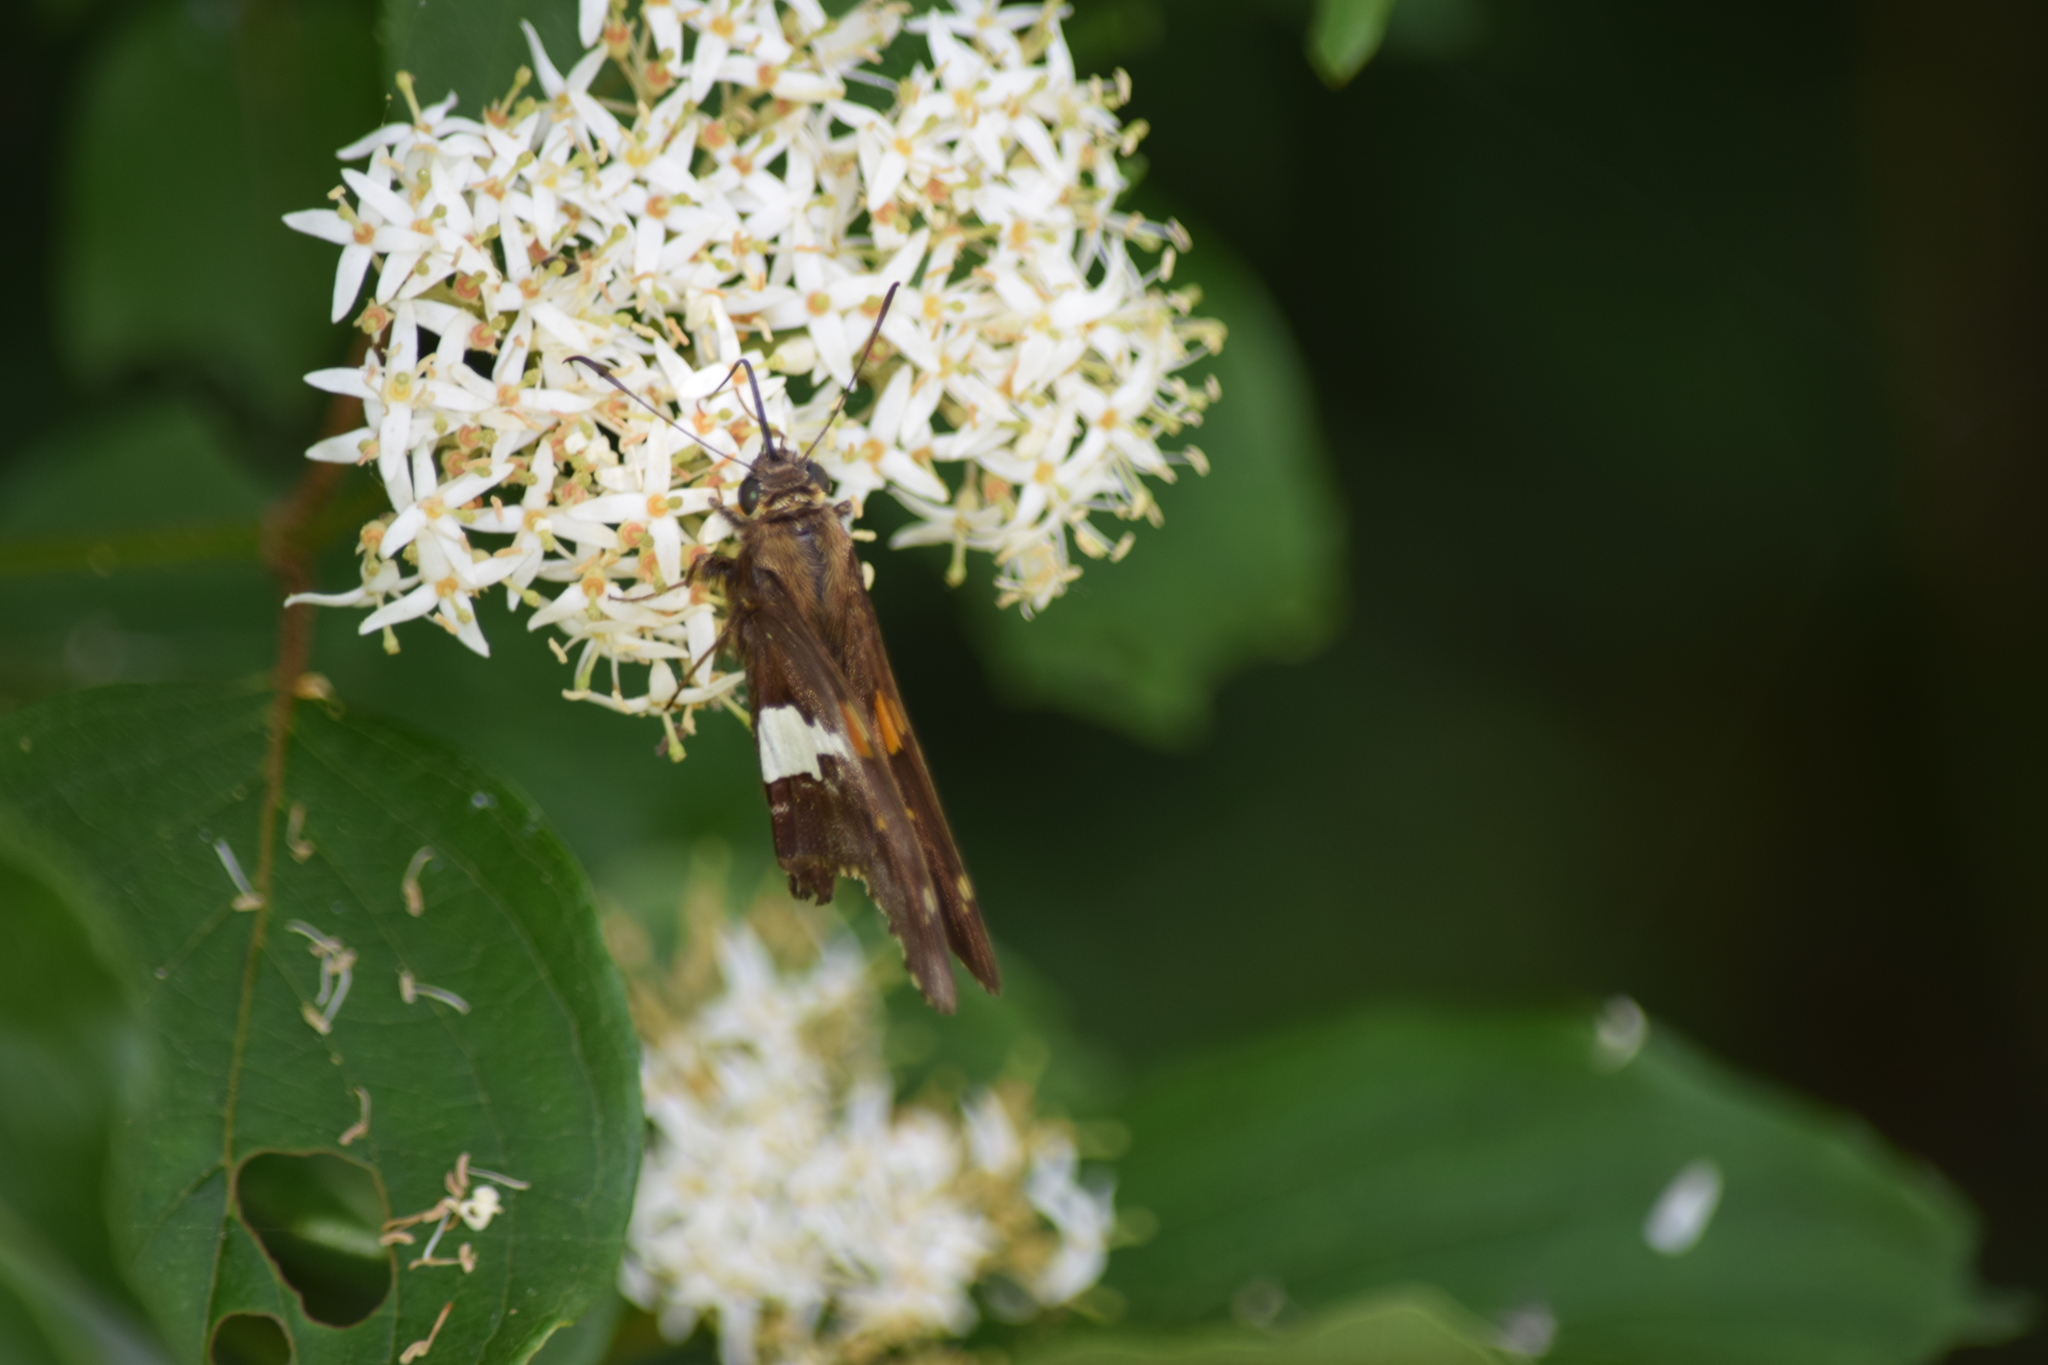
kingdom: Animalia
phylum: Arthropoda
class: Insecta
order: Lepidoptera
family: Hesperiidae
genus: Epargyreus
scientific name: Epargyreus clarus
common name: Silver-spotted skipper
